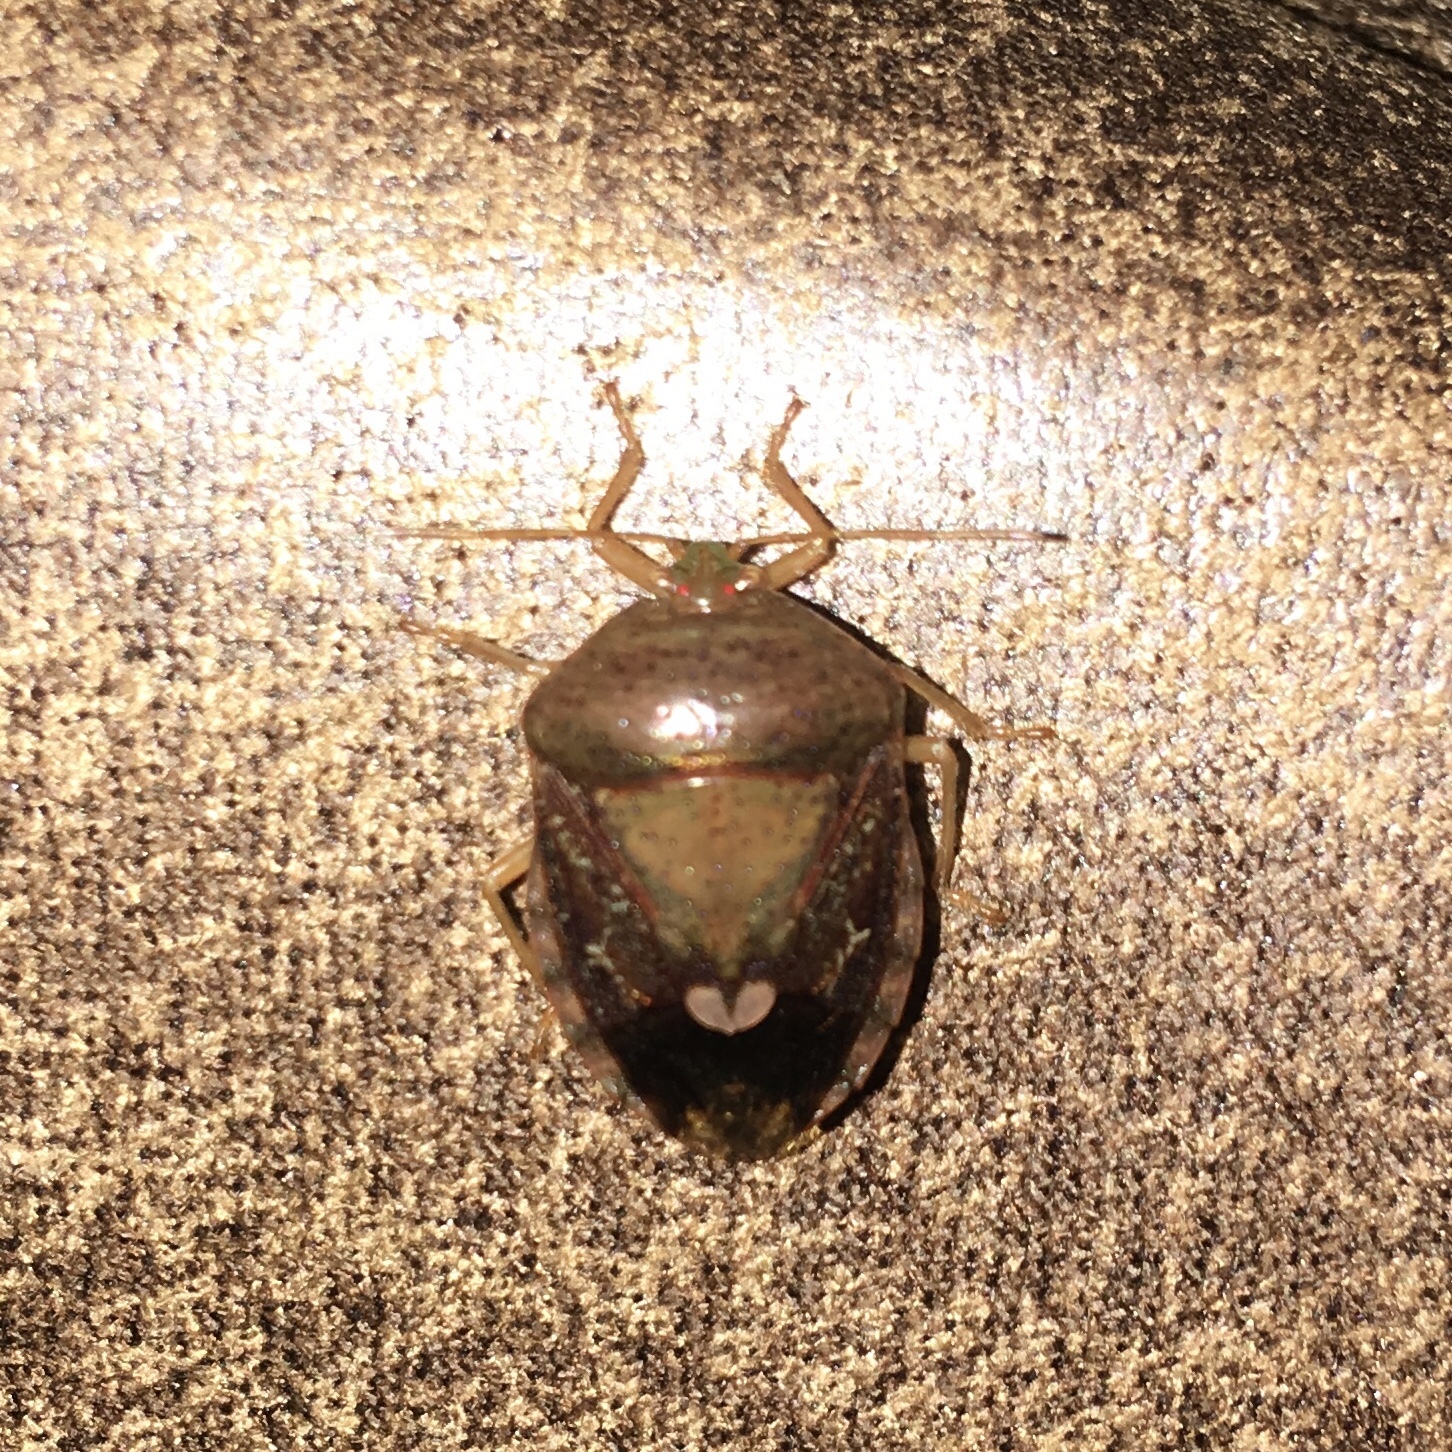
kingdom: Animalia
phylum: Arthropoda
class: Insecta
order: Hemiptera
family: Pentatomidae
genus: Edessa
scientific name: Edessa bifida
